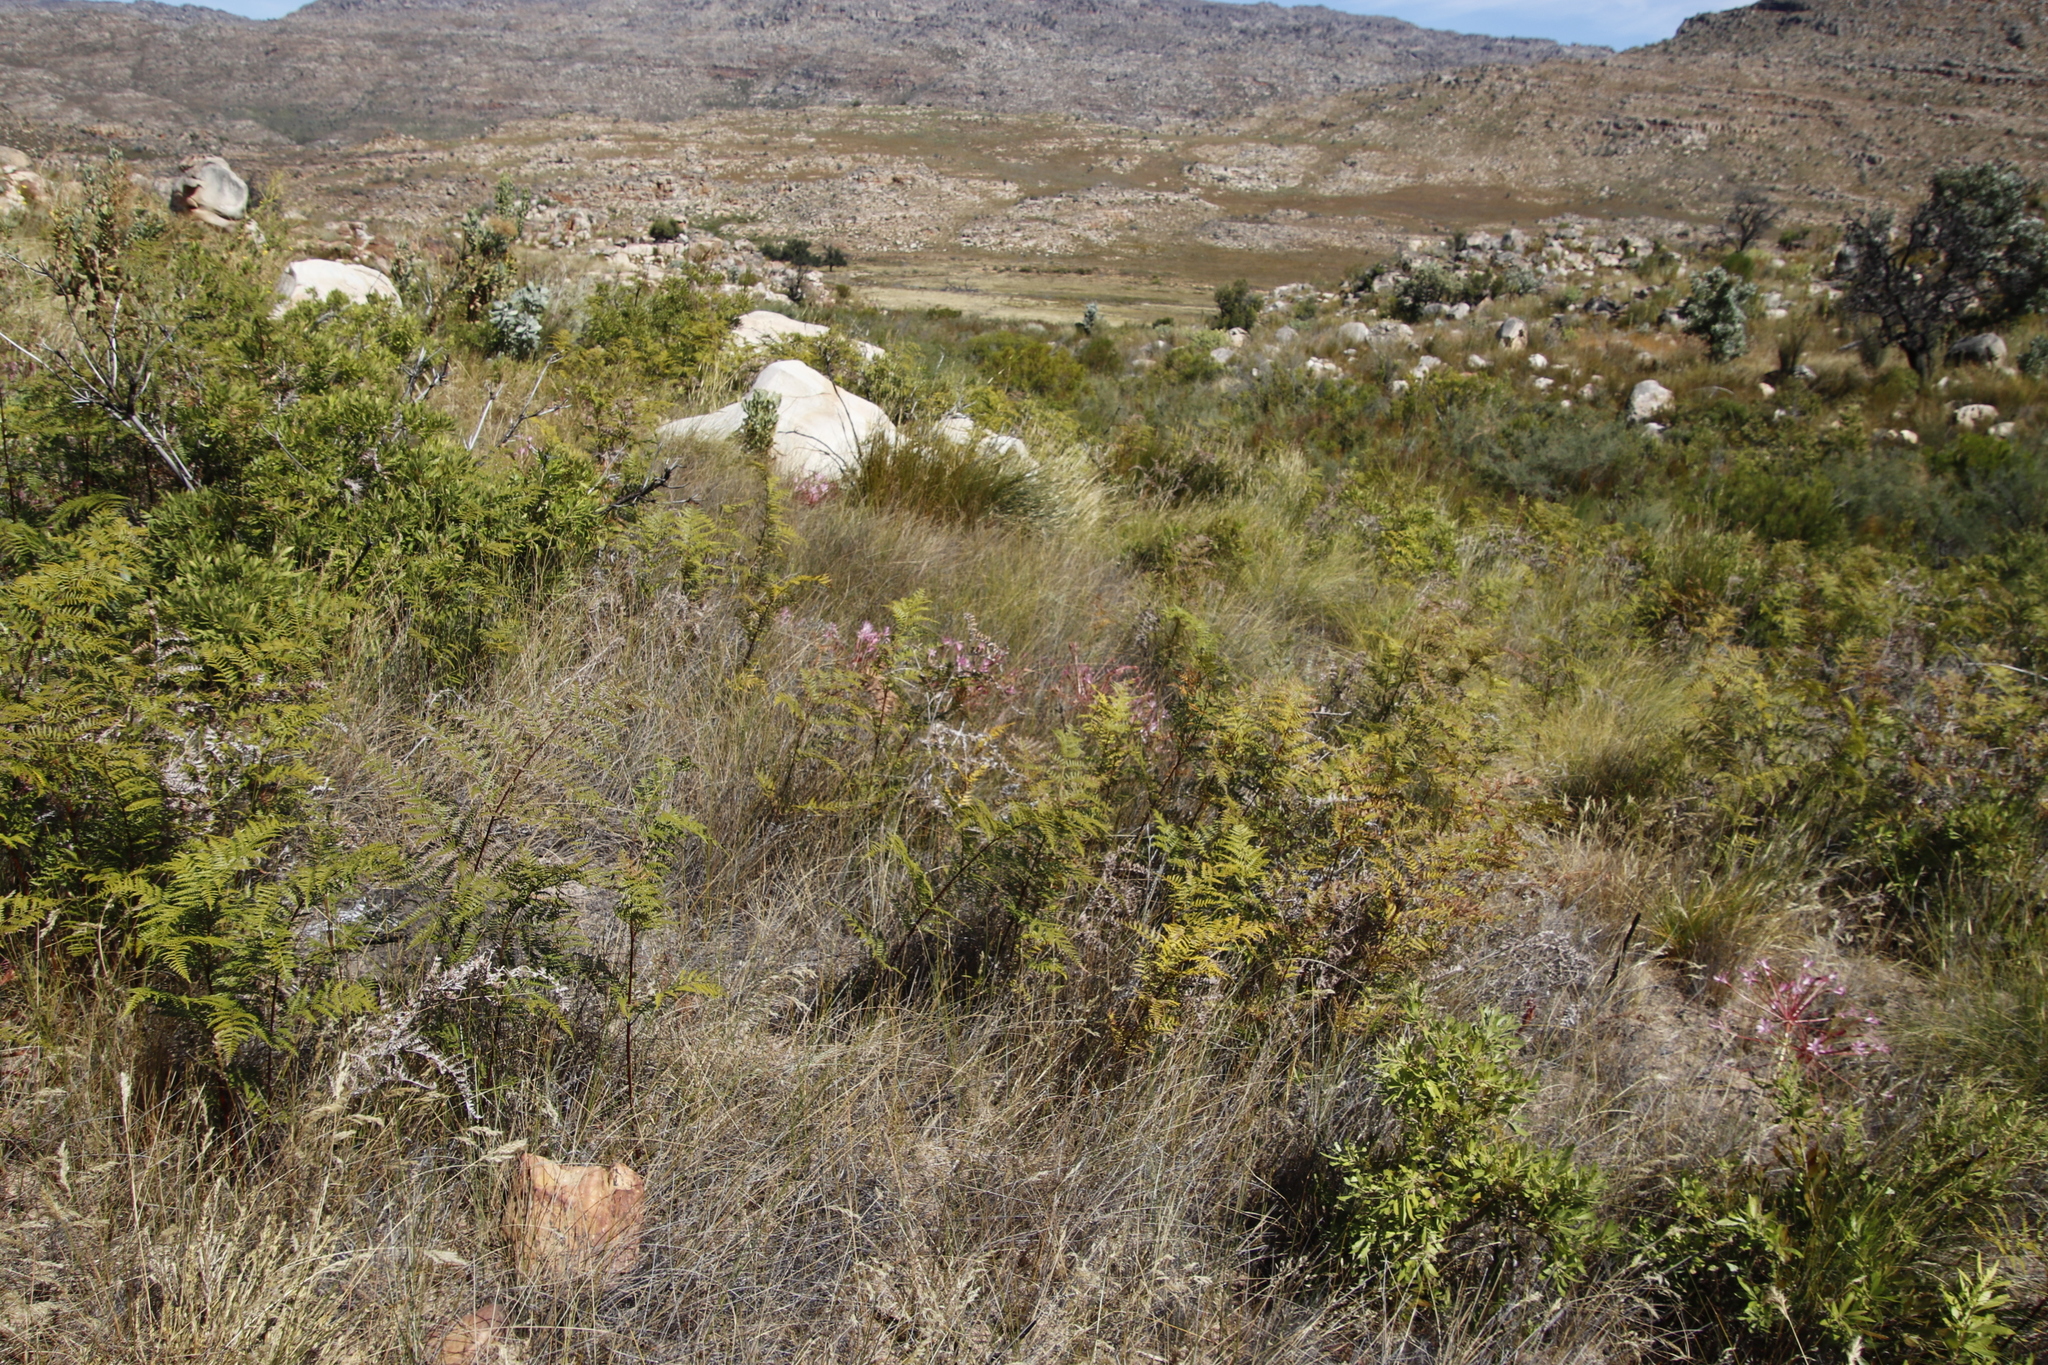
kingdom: Plantae
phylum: Tracheophyta
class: Polypodiopsida
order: Polypodiales
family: Dennstaedtiaceae
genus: Pteridium
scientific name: Pteridium aquilinum
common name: Bracken
